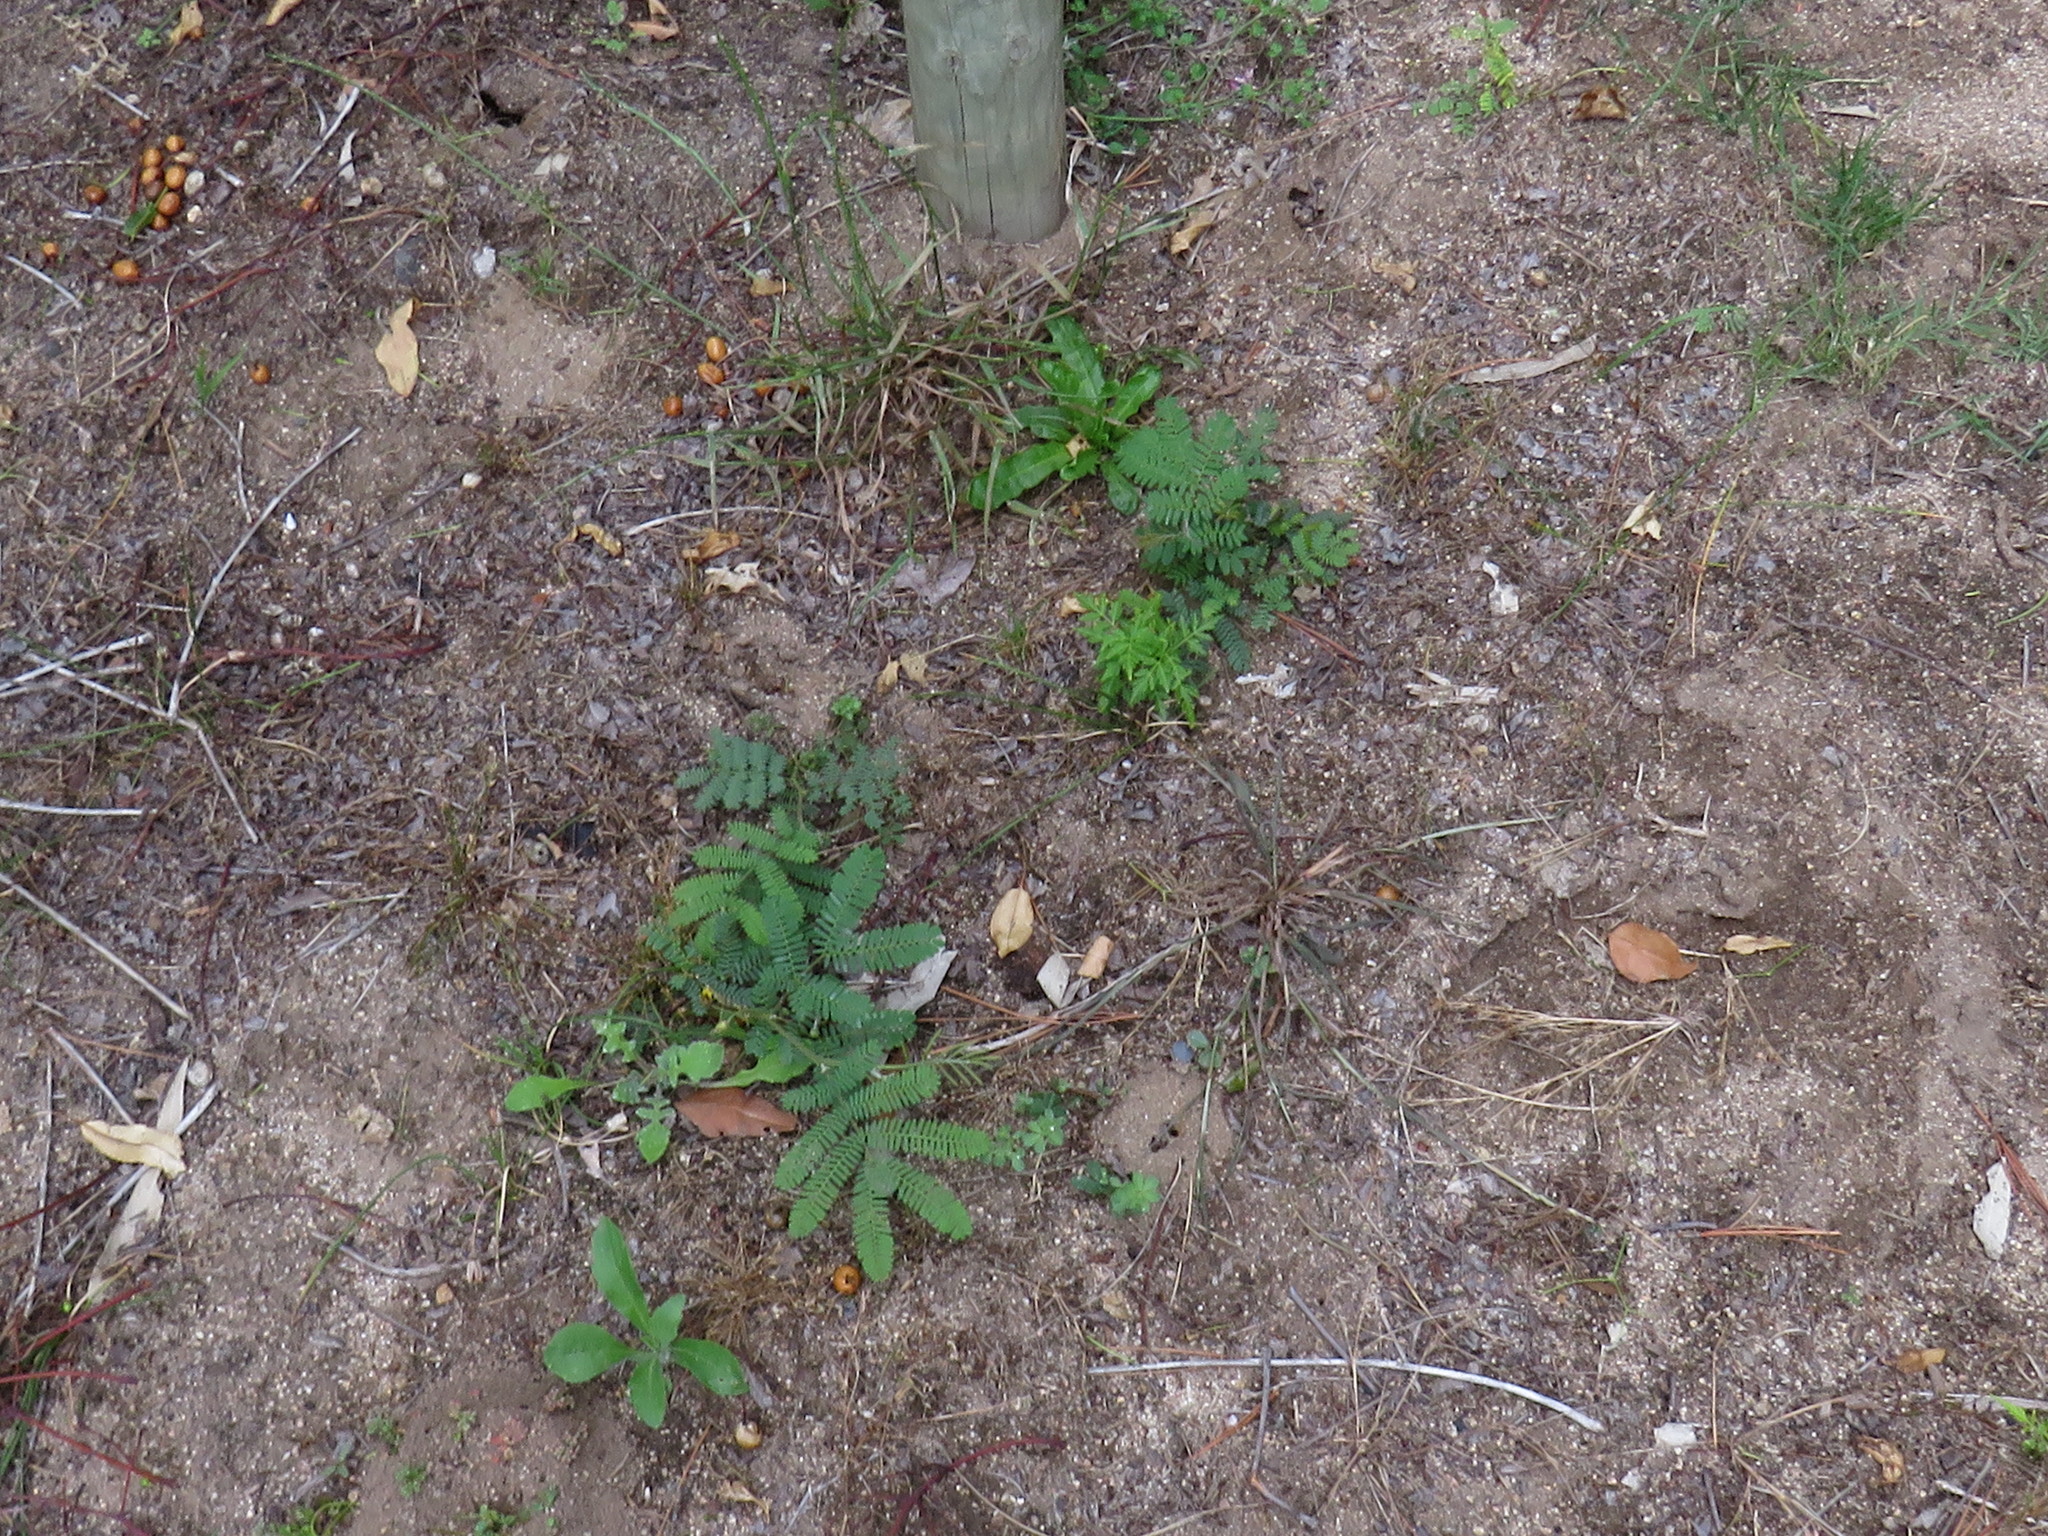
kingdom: Plantae
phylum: Tracheophyta
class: Magnoliopsida
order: Fabales
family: Fabaceae
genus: Acacia
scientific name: Acacia mearnsii
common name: Black wattle
